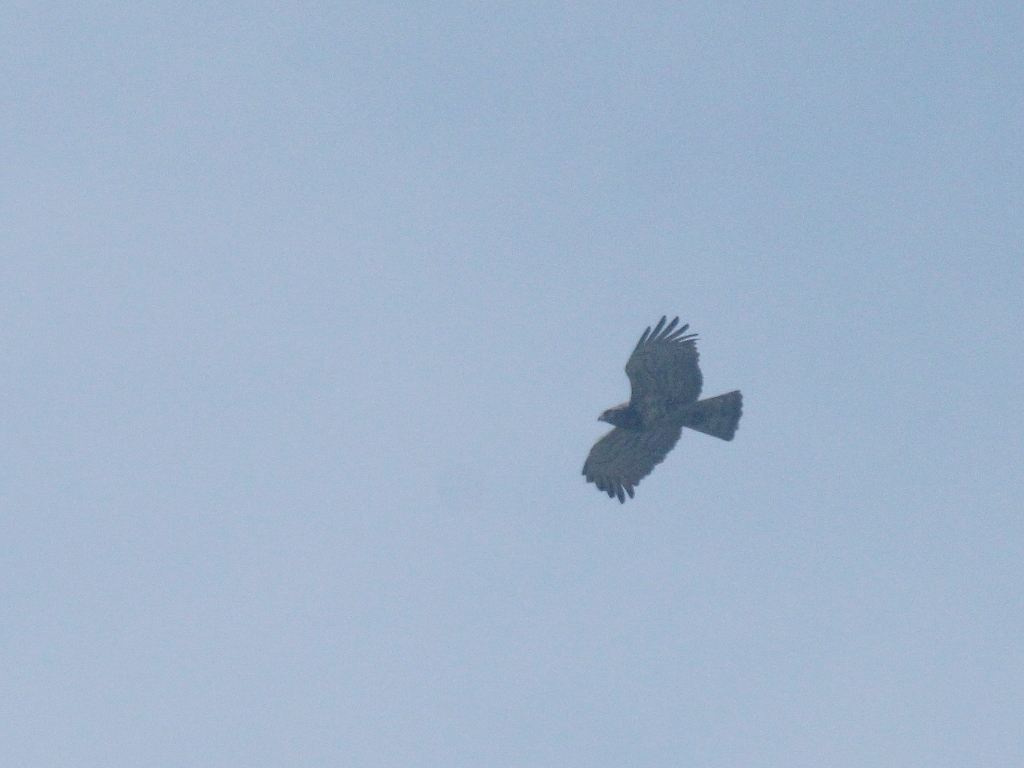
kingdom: Animalia
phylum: Chordata
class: Aves
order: Accipitriformes
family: Accipitridae
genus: Circaetus
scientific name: Circaetus gallicus
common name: Short-toed snake eagle
